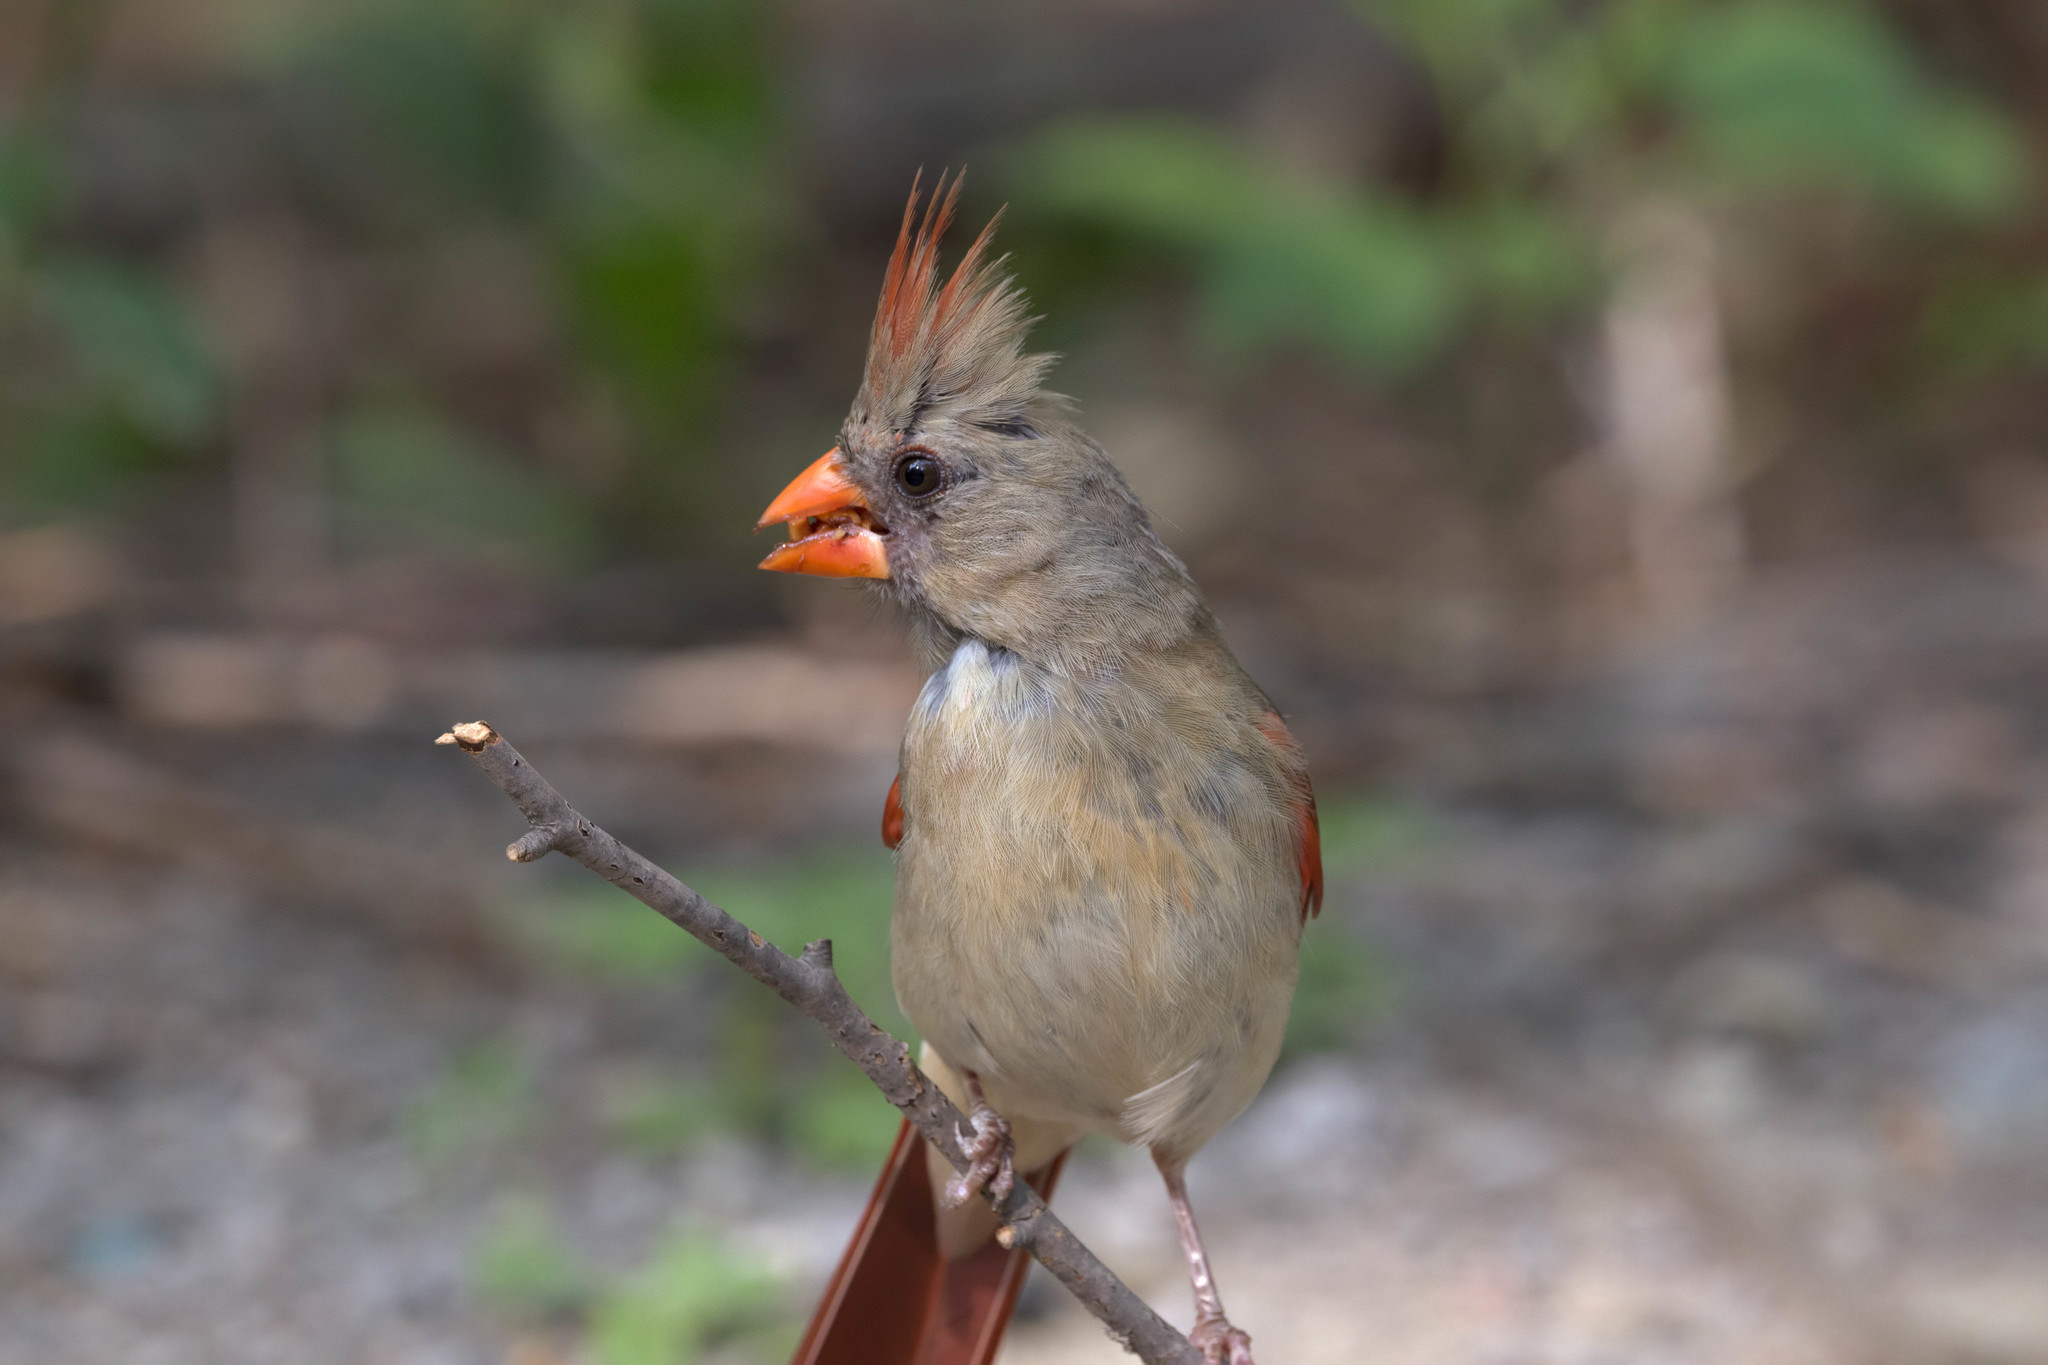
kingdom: Animalia
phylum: Chordata
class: Aves
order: Passeriformes
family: Cardinalidae
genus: Cardinalis
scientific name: Cardinalis cardinalis
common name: Northern cardinal
